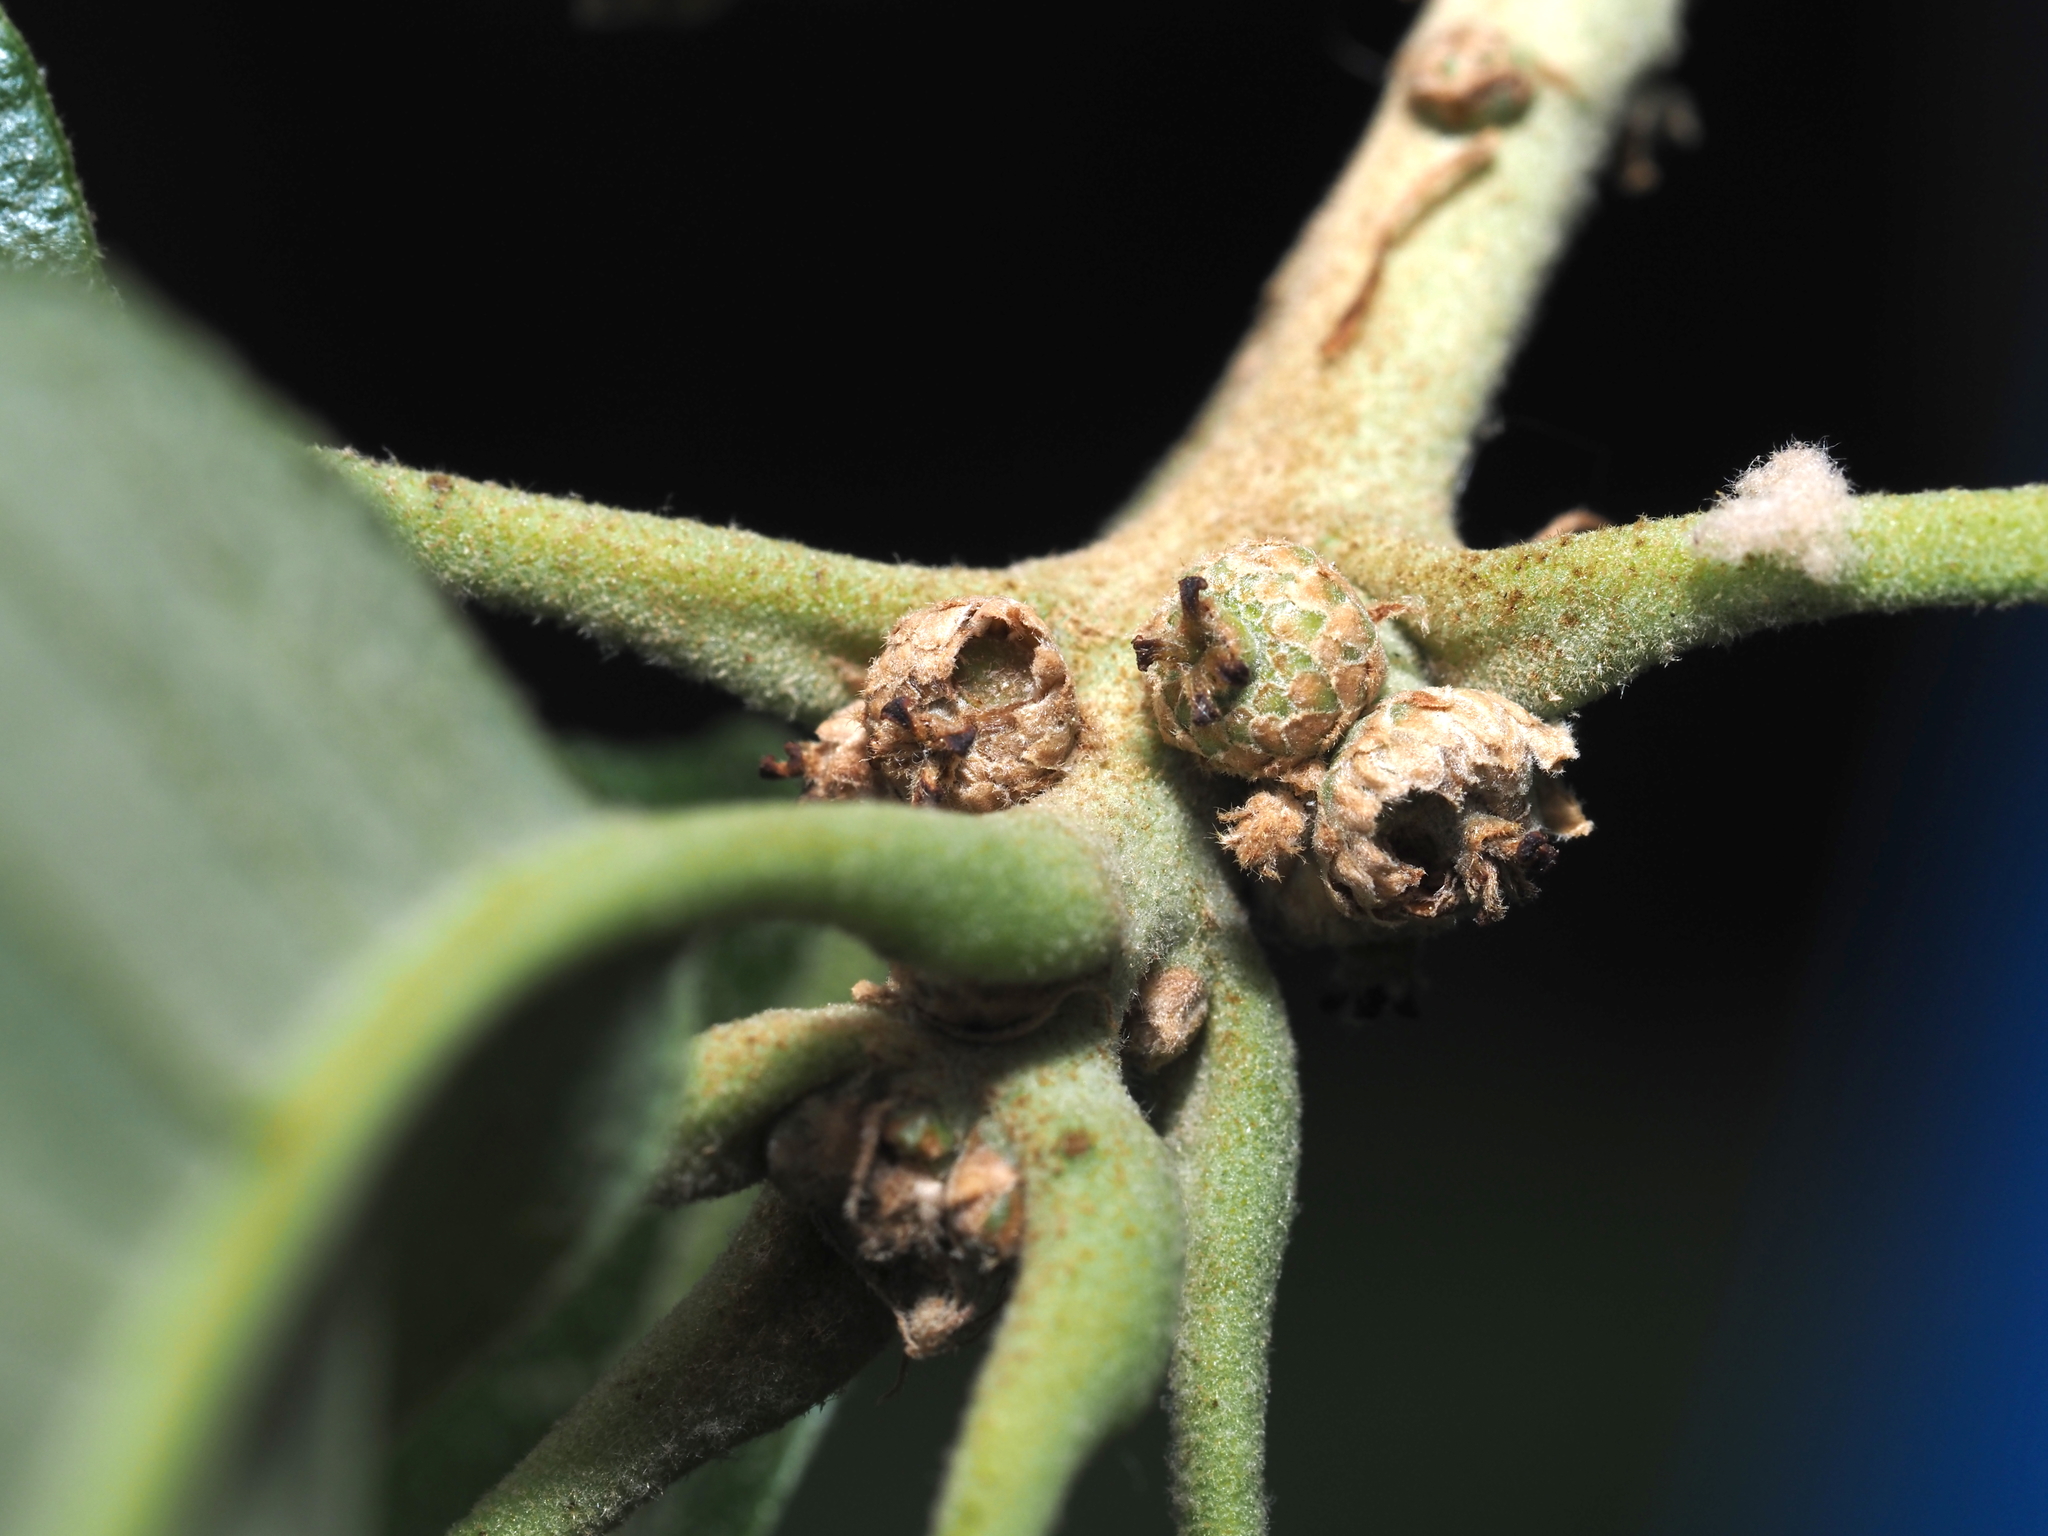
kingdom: Animalia
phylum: Arthropoda
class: Insecta
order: Hymenoptera
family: Cynipidae
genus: Callirhytis
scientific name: Callirhytis
